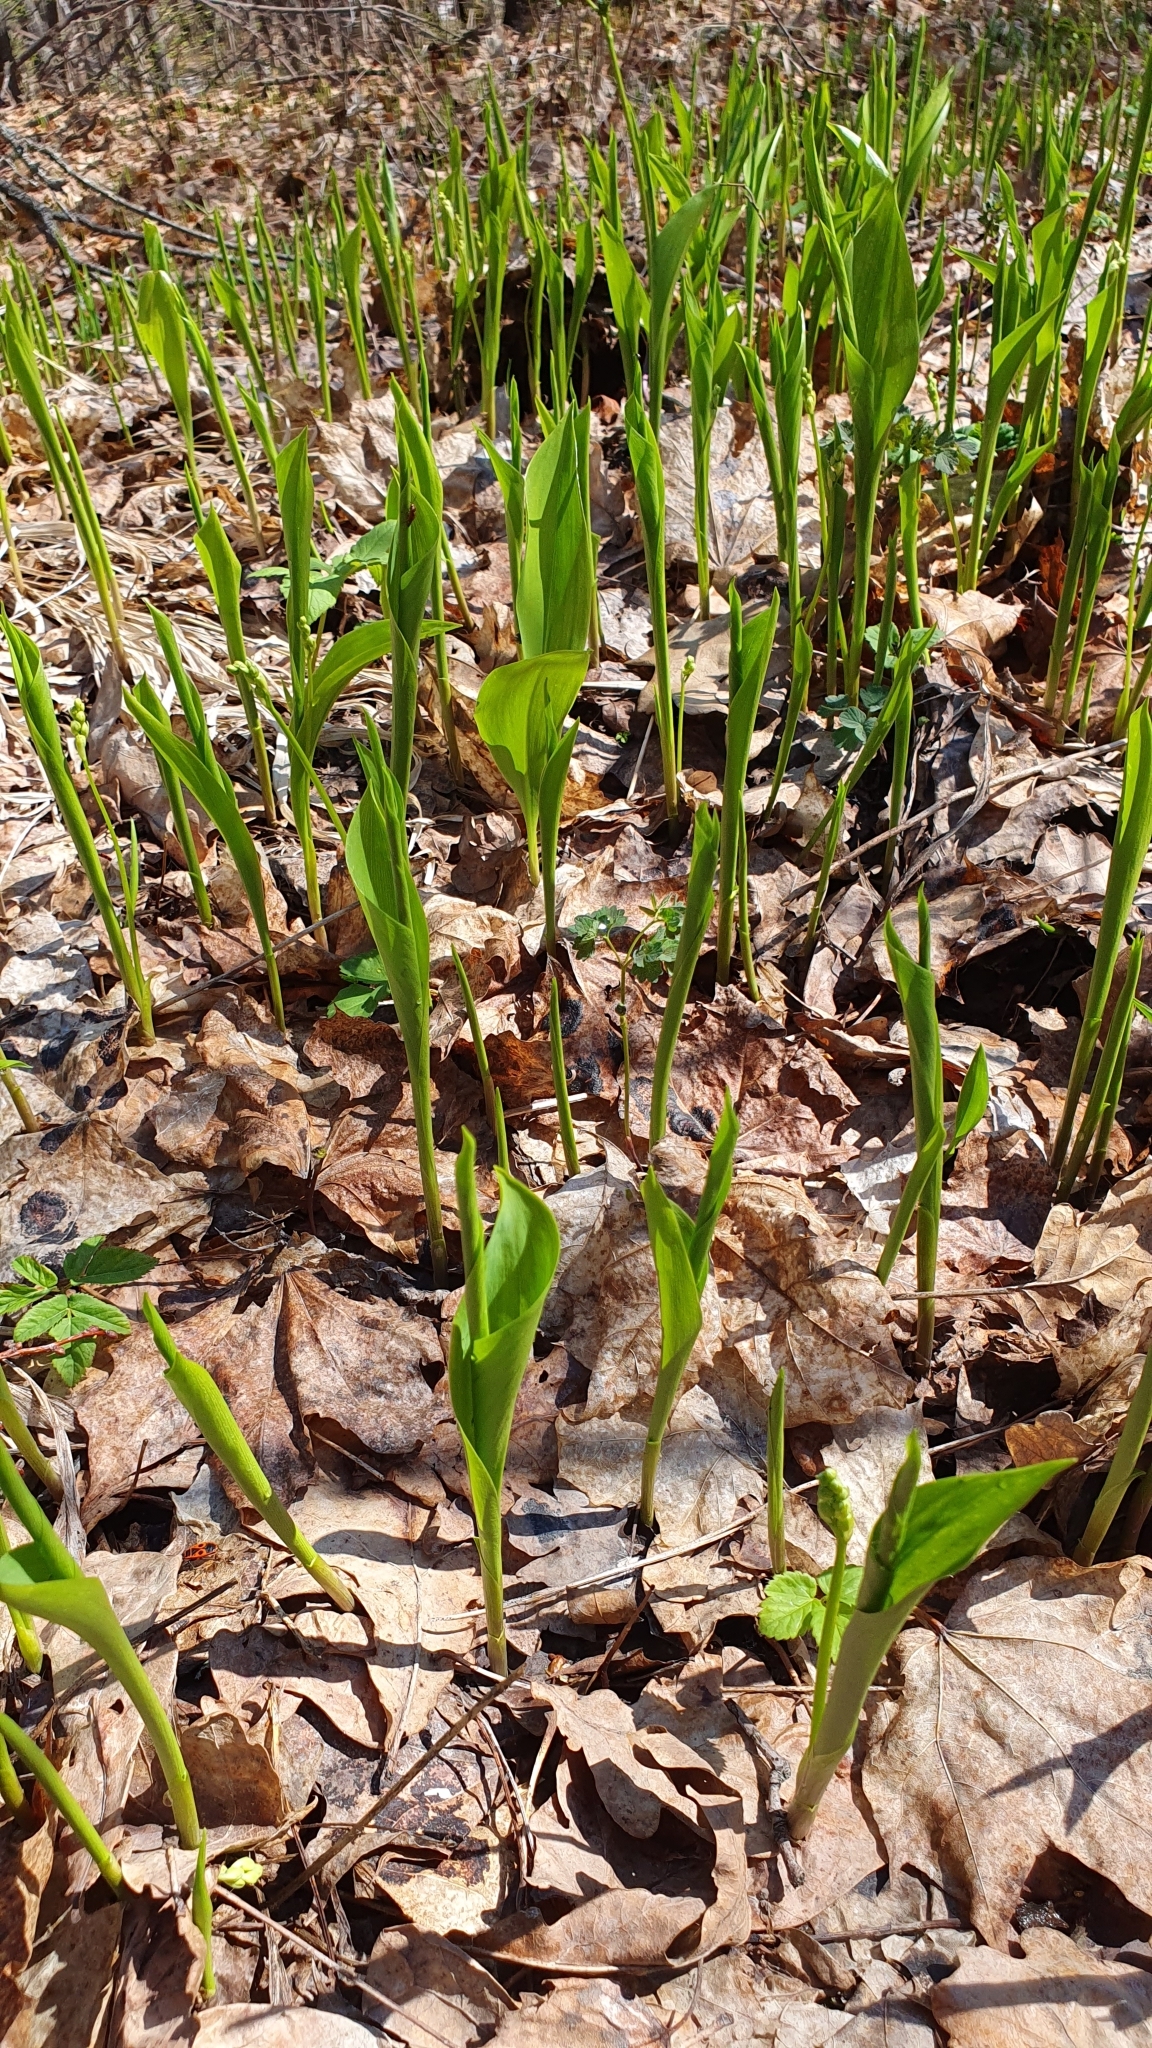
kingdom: Plantae
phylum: Tracheophyta
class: Liliopsida
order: Asparagales
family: Asparagaceae
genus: Convallaria
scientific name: Convallaria majalis
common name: Lily-of-the-valley
